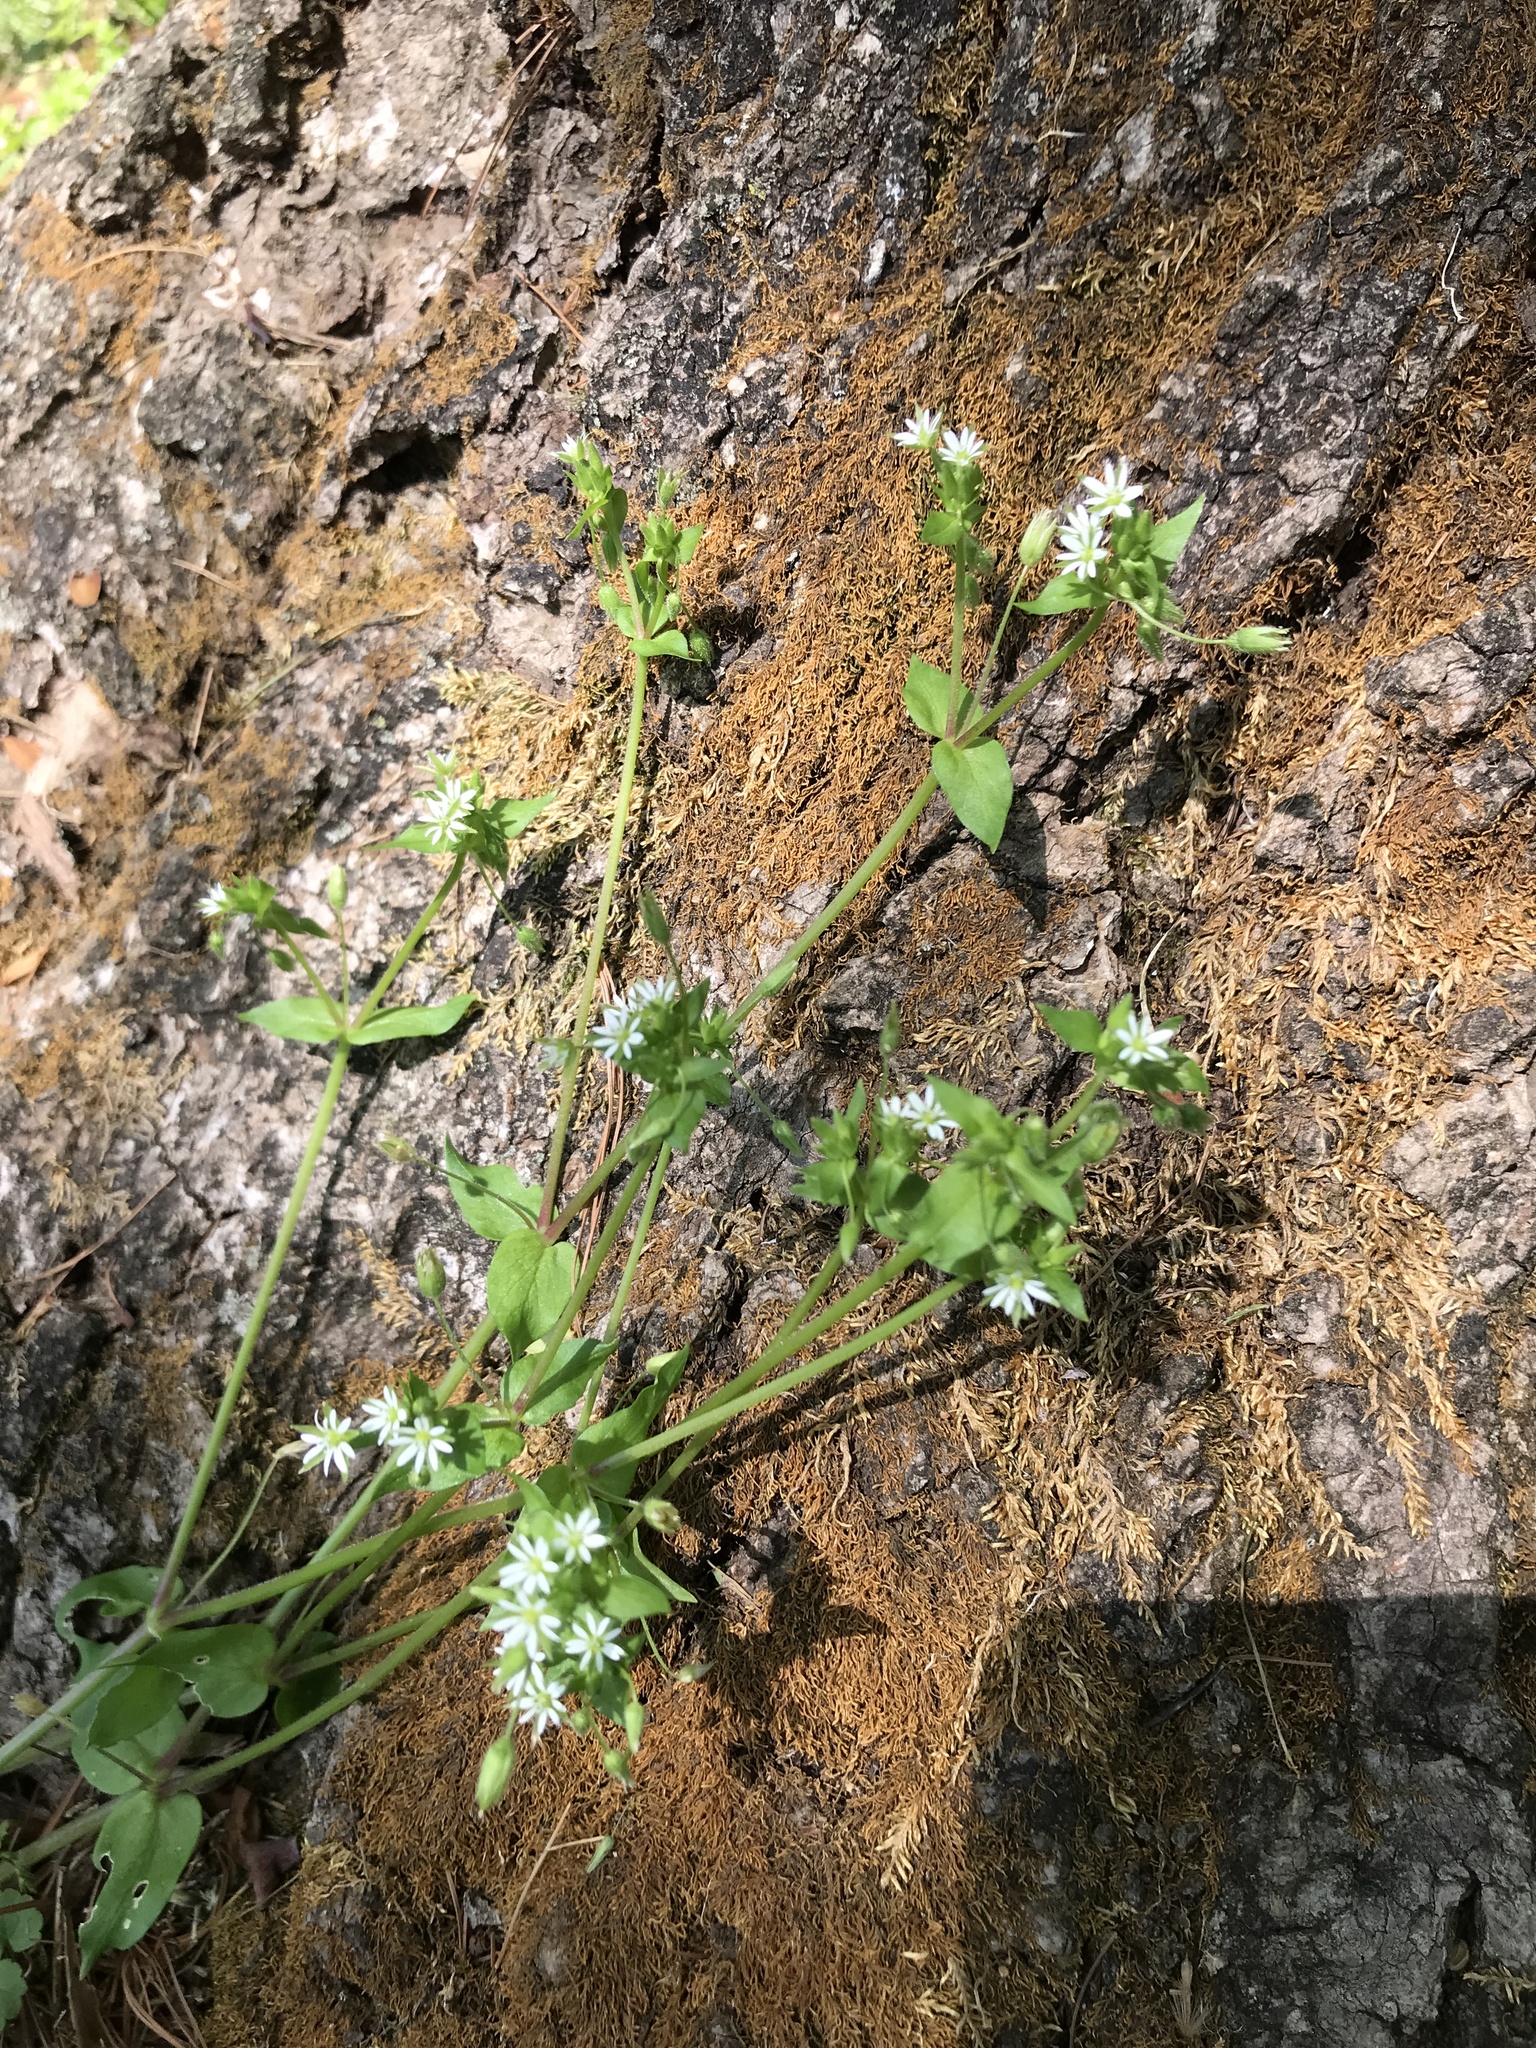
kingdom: Plantae
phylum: Tracheophyta
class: Magnoliopsida
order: Caryophyllales
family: Caryophyllaceae
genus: Stellaria
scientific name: Stellaria media
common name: Common chickweed
